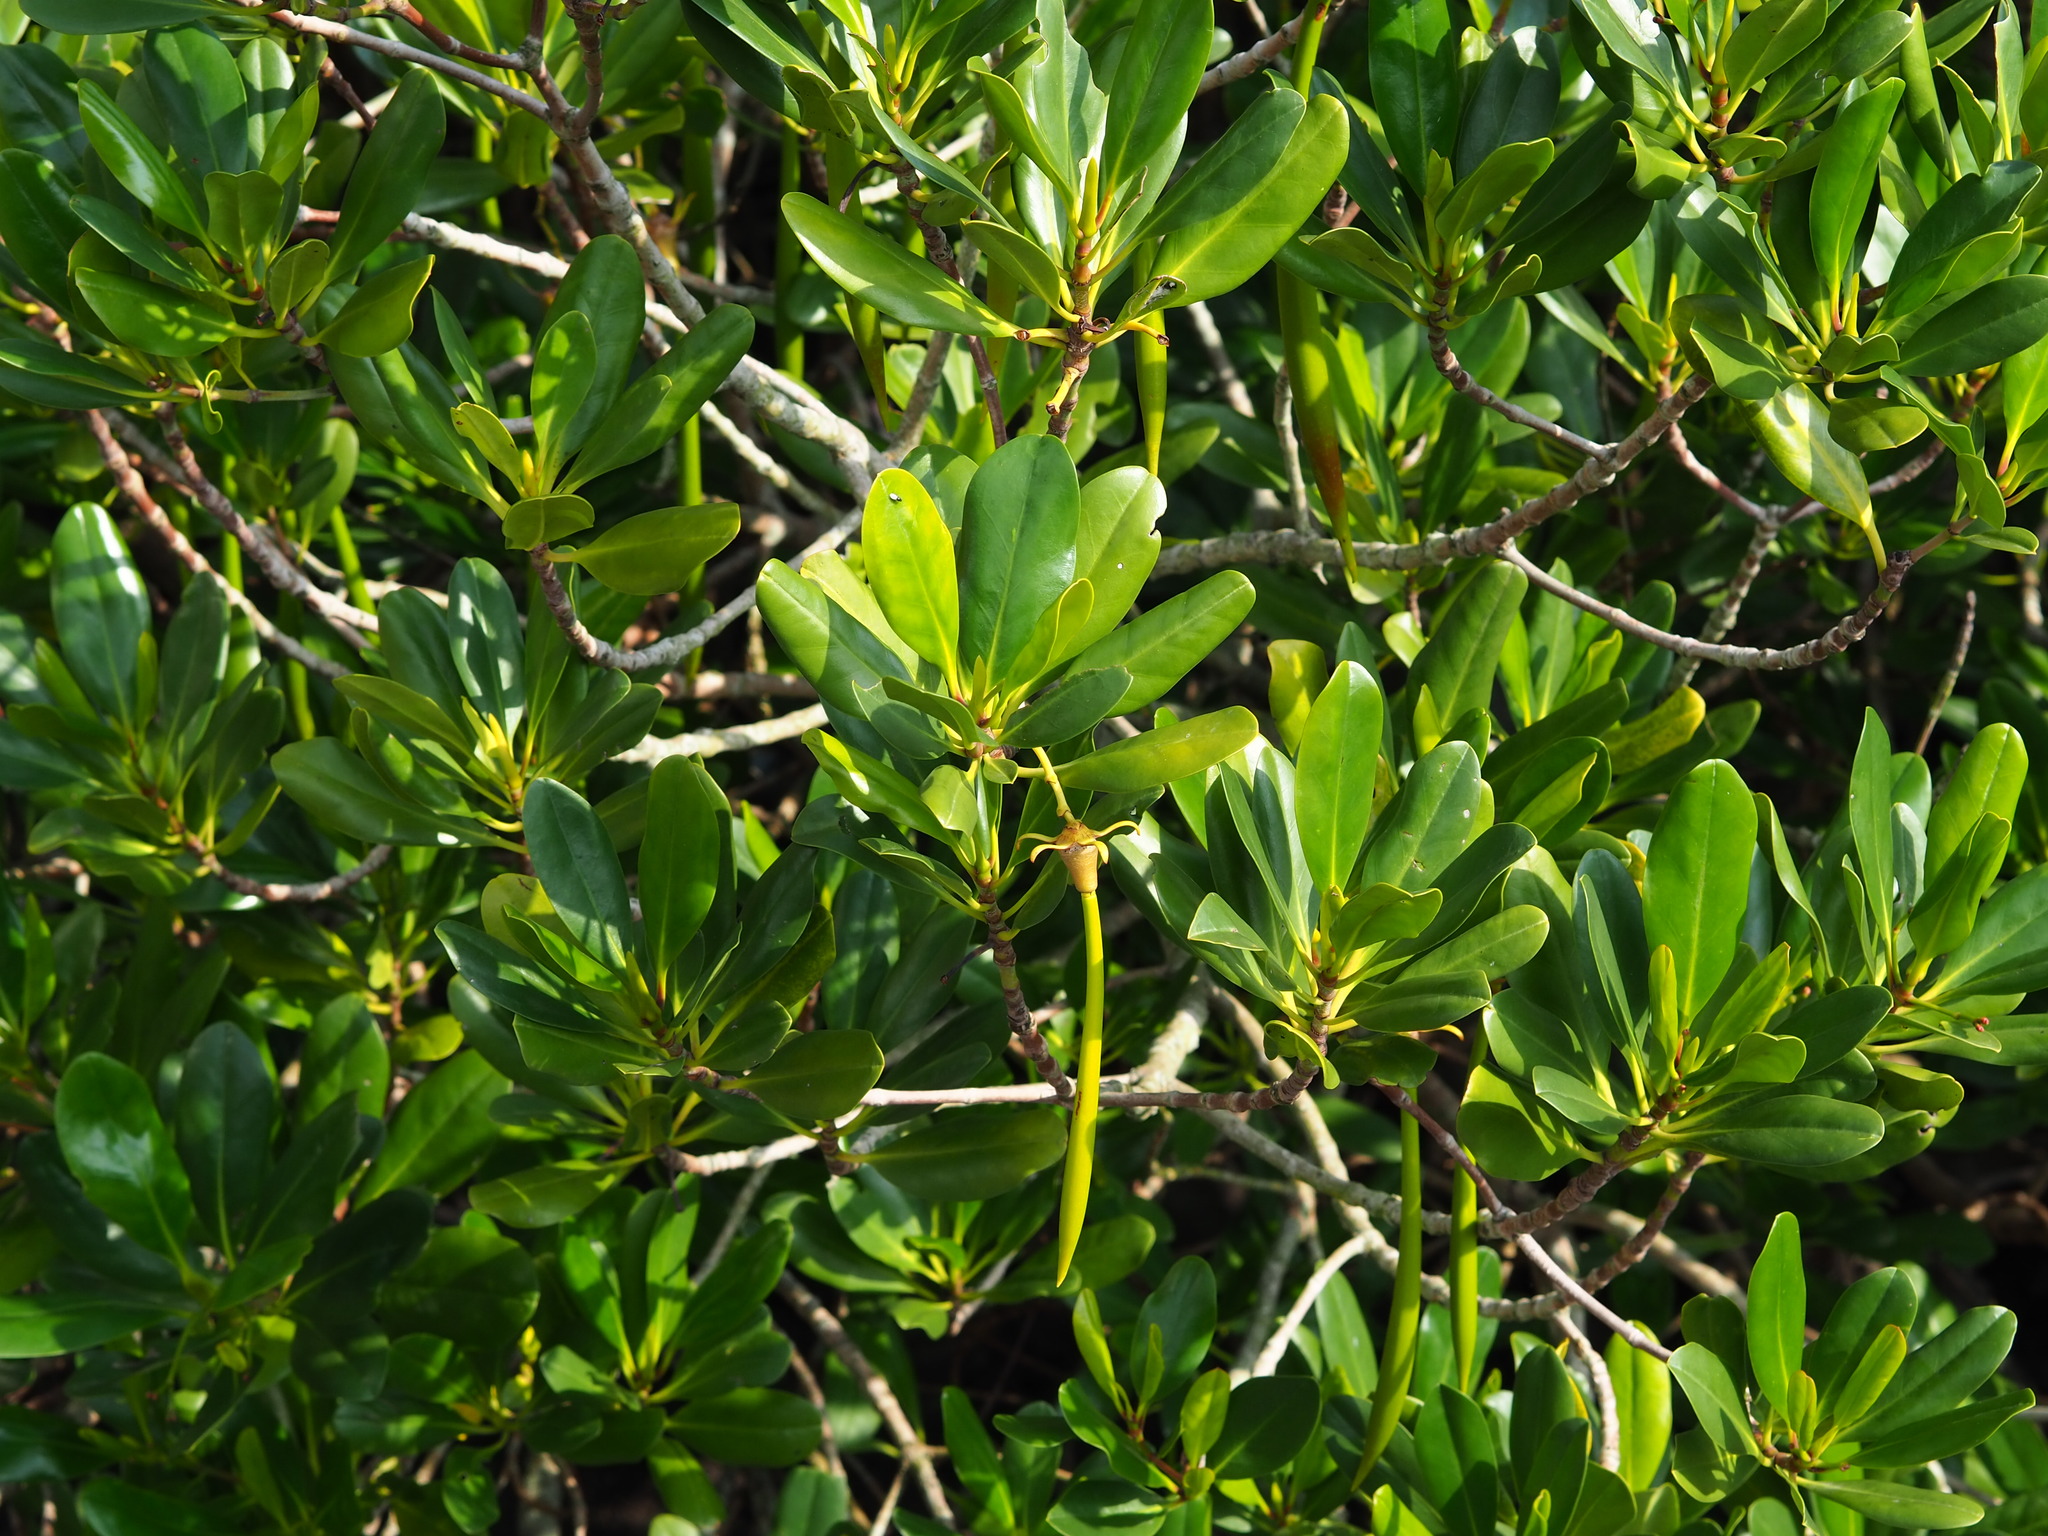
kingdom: Plantae
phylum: Tracheophyta
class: Magnoliopsida
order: Malpighiales
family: Rhizophoraceae
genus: Kandelia
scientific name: Kandelia obovata
